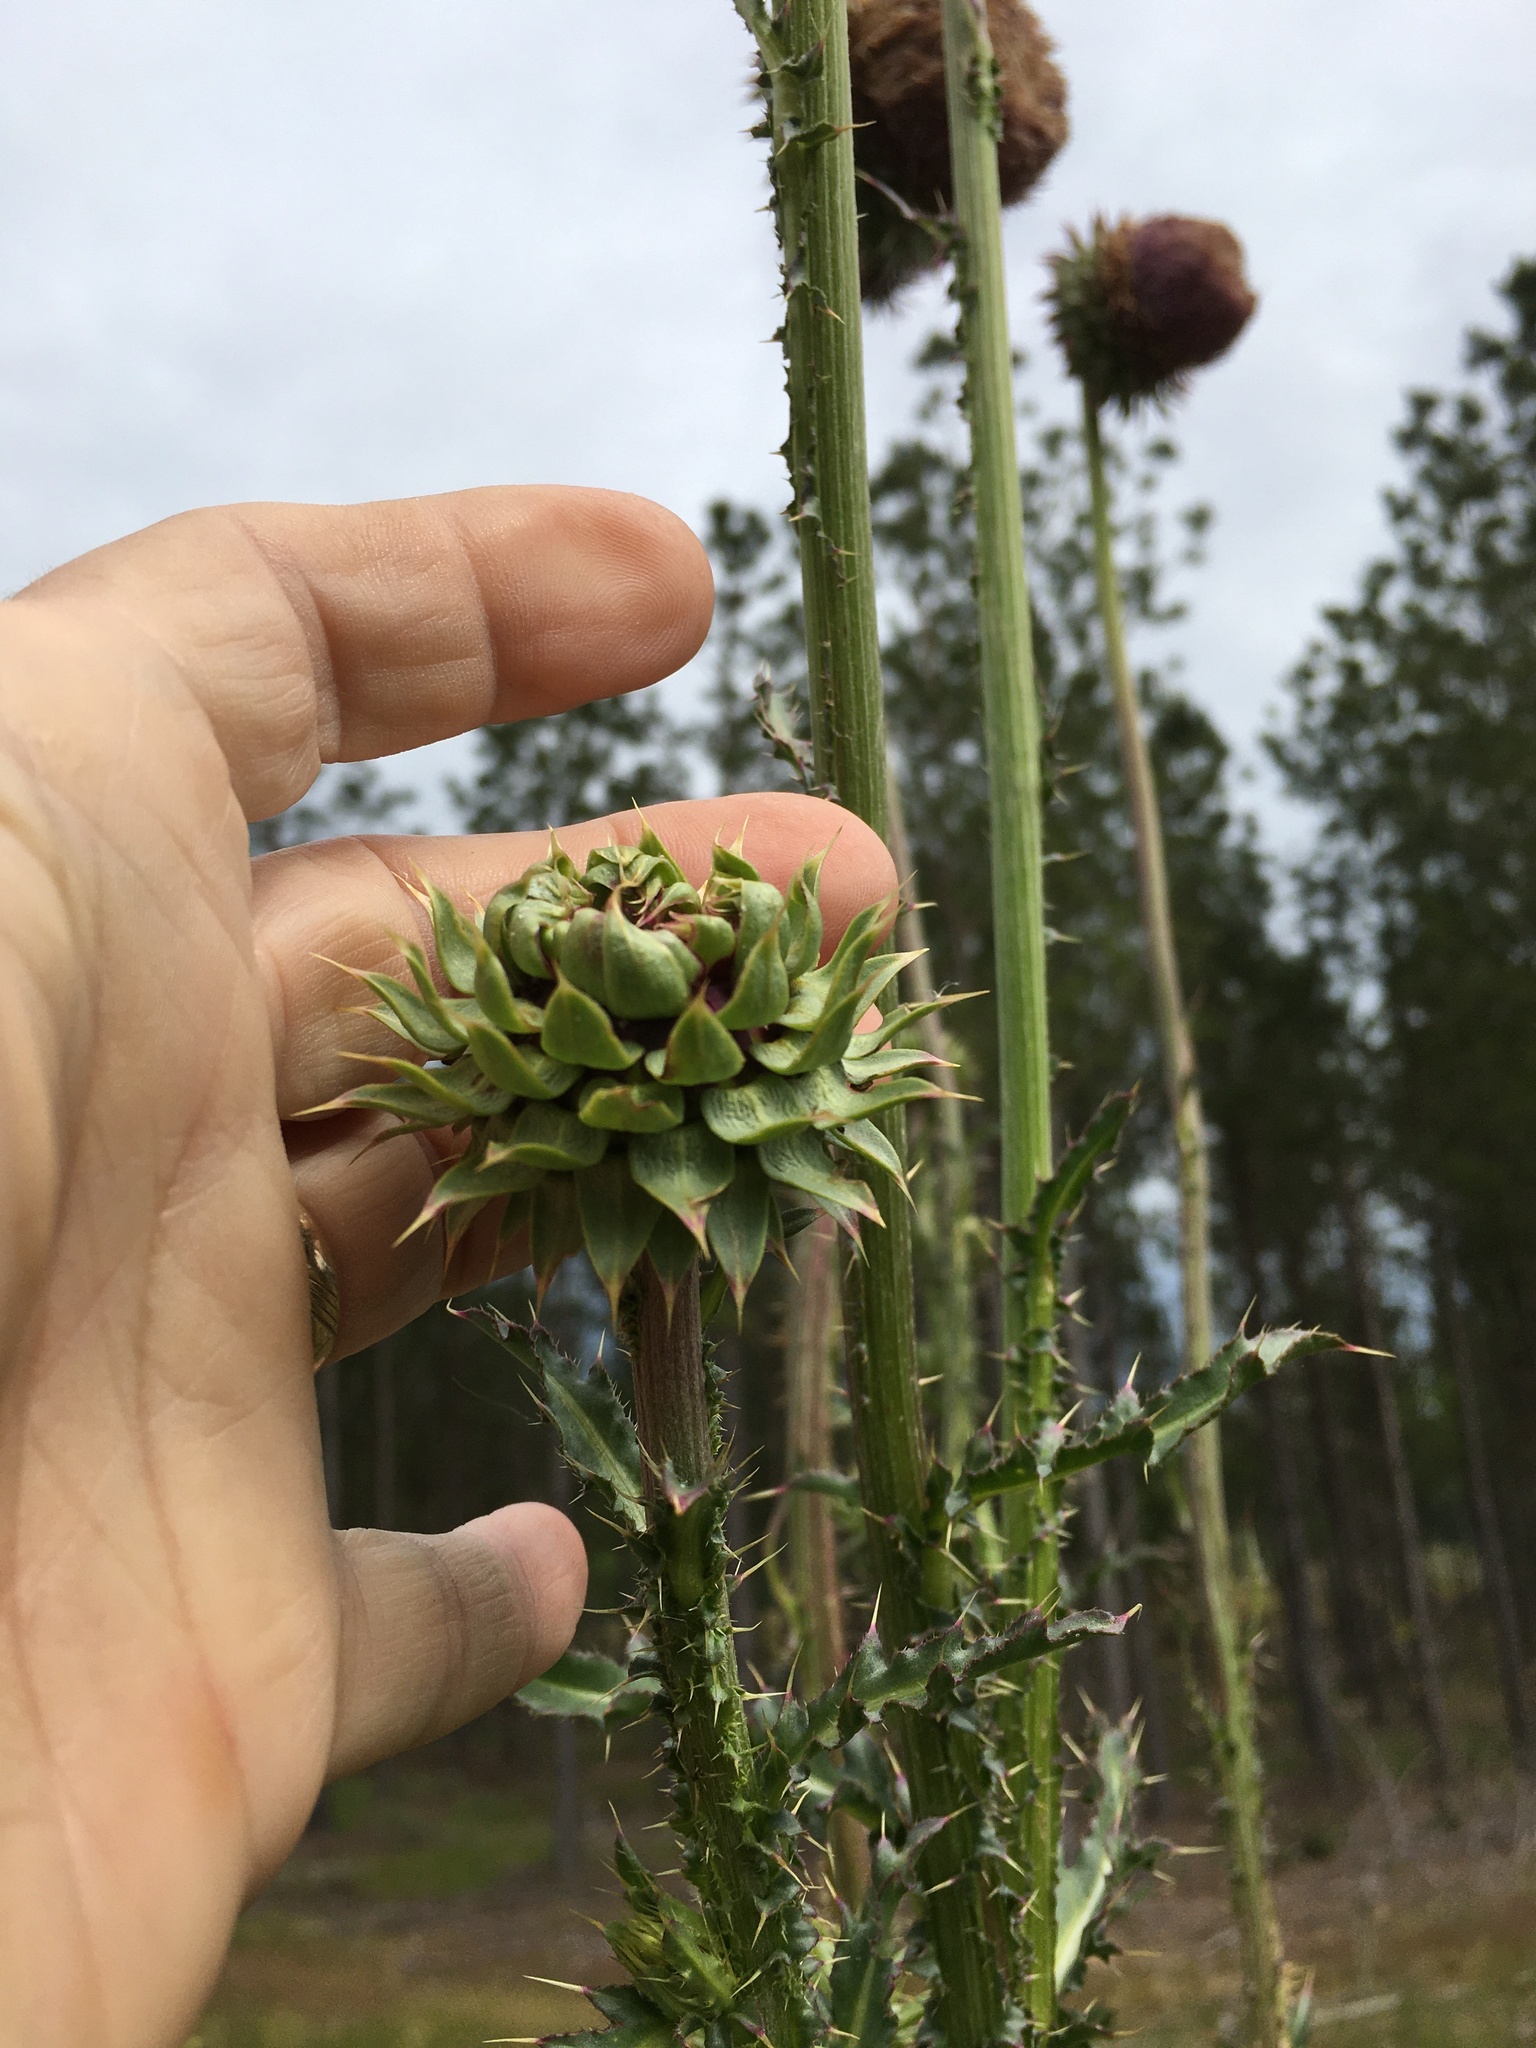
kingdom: Plantae
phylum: Tracheophyta
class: Magnoliopsida
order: Asterales
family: Asteraceae
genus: Carduus
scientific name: Carduus nutans
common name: Musk thistle
